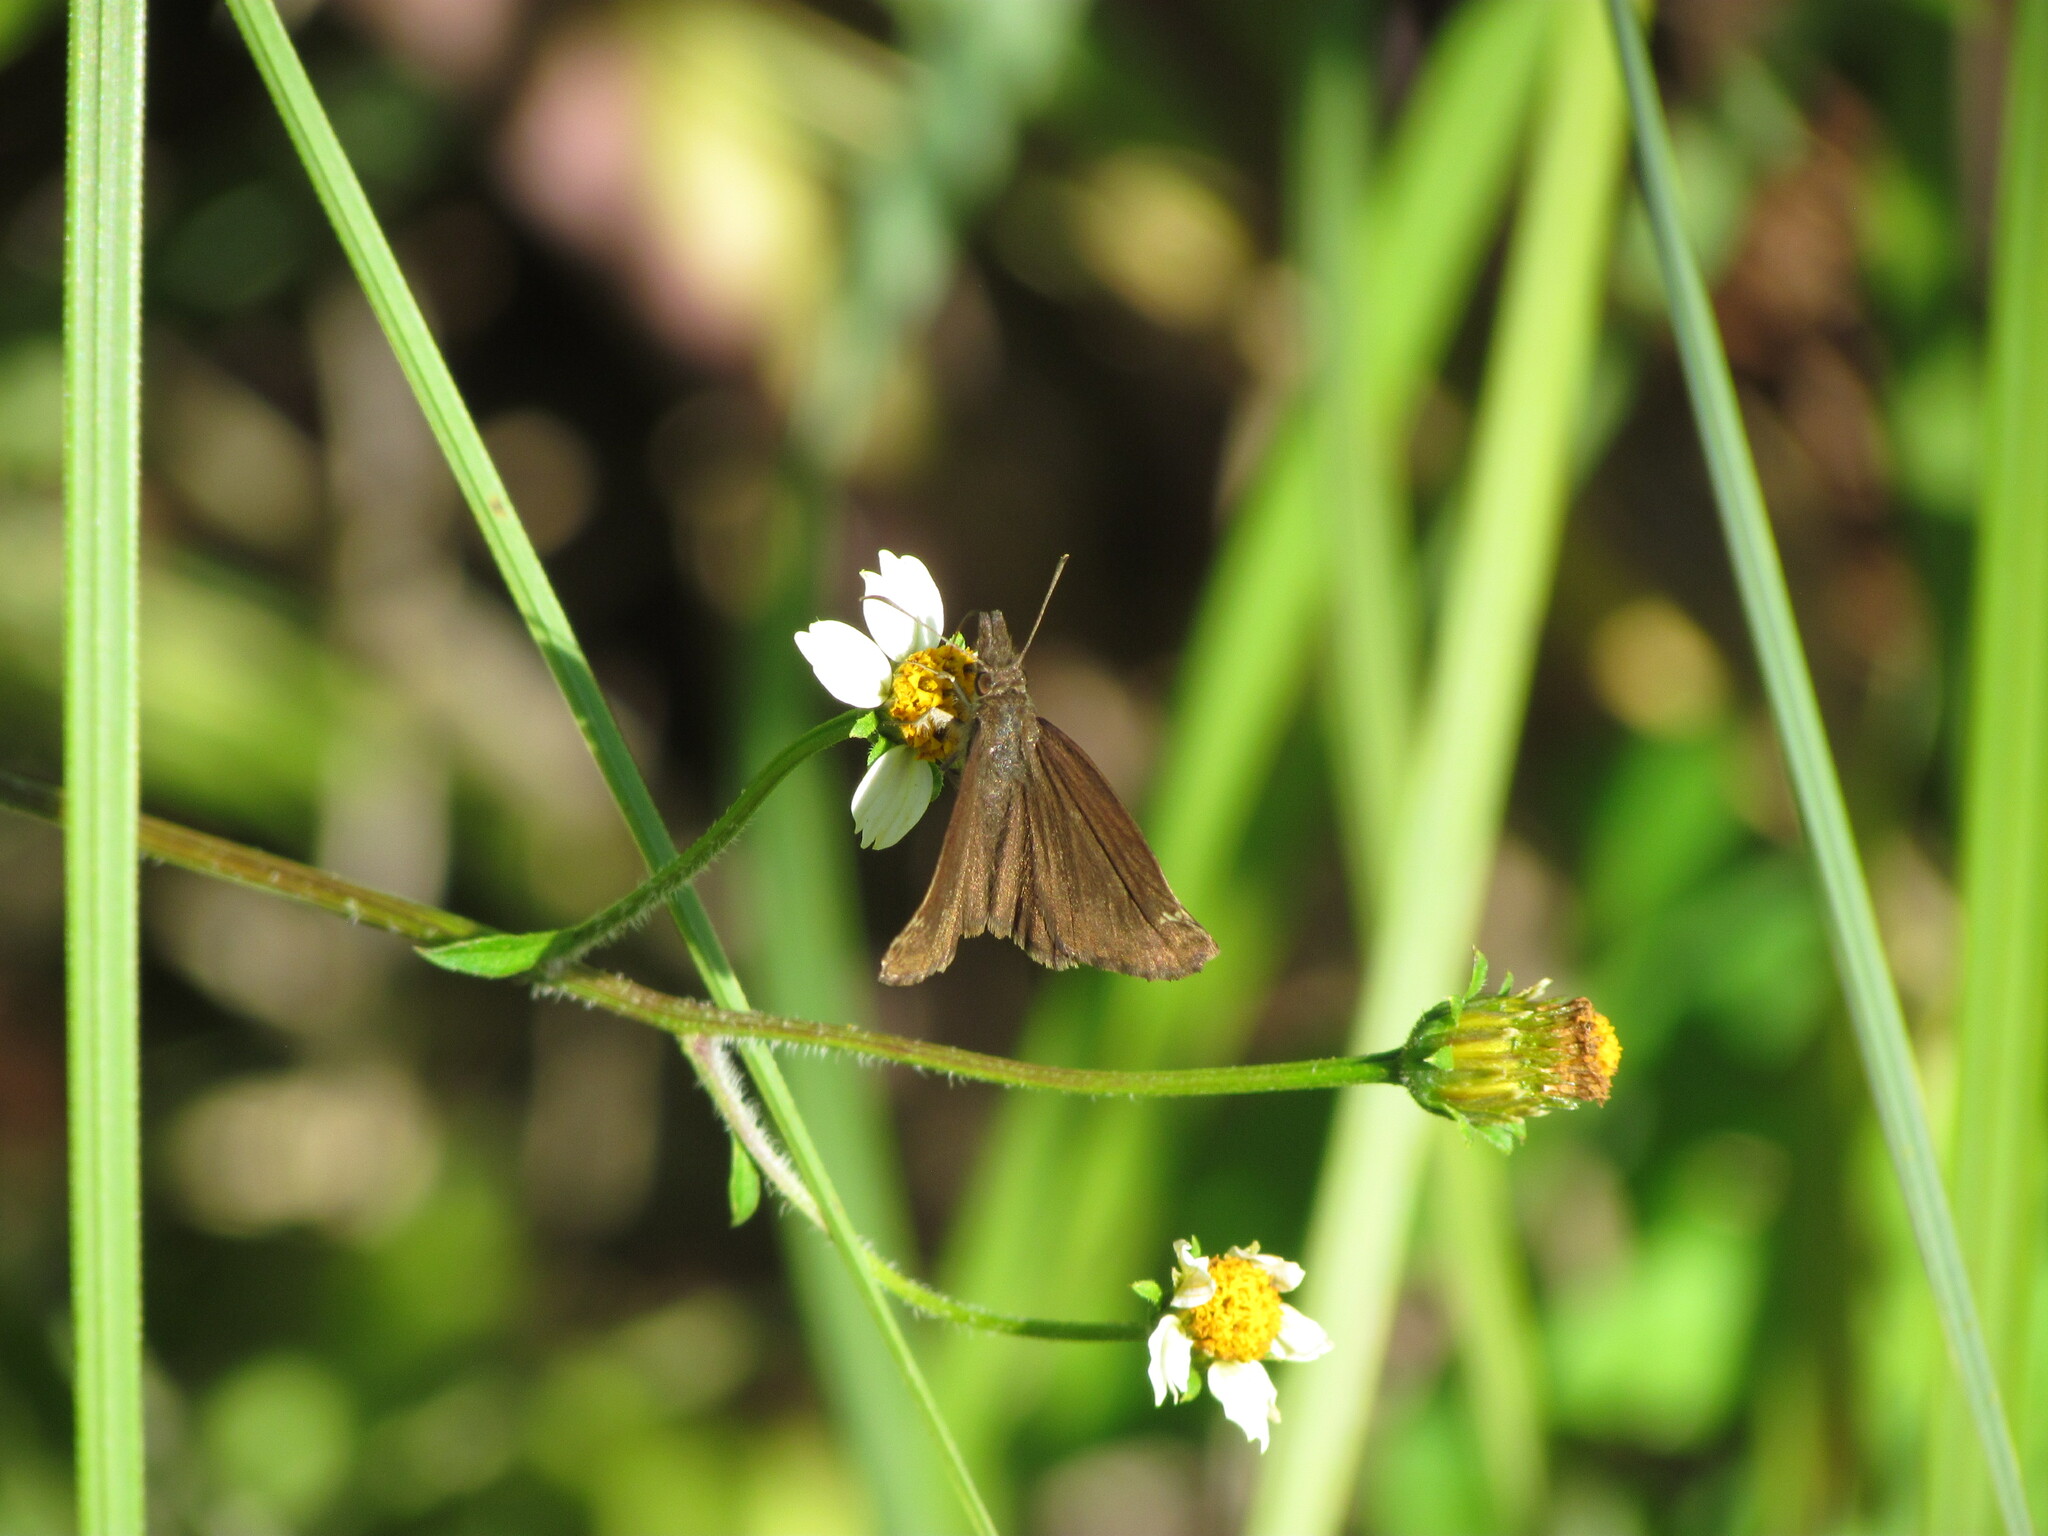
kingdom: Animalia
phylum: Arthropoda
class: Insecta
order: Lepidoptera
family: Hesperiidae
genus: Anisochoria
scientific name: Anisochoria sublimbata
